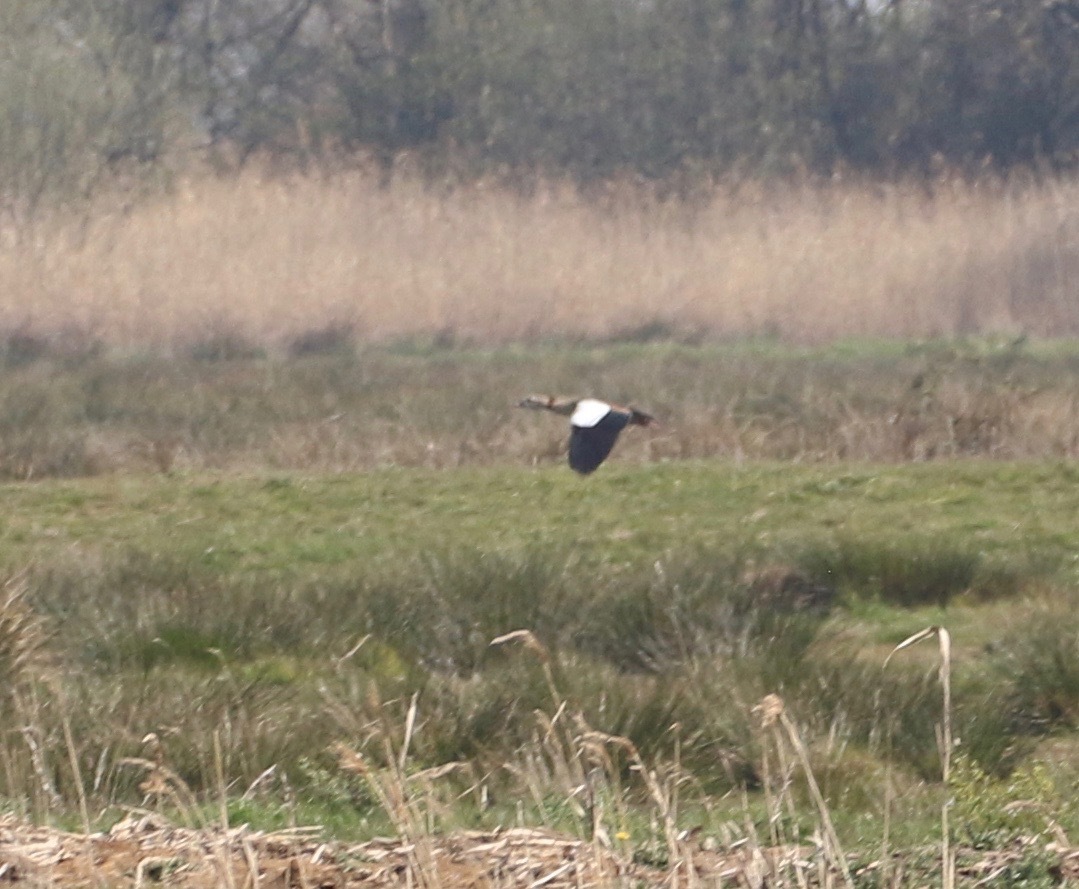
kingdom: Animalia
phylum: Chordata
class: Aves
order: Anseriformes
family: Anatidae
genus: Alopochen
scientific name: Alopochen aegyptiaca
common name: Egyptian goose
